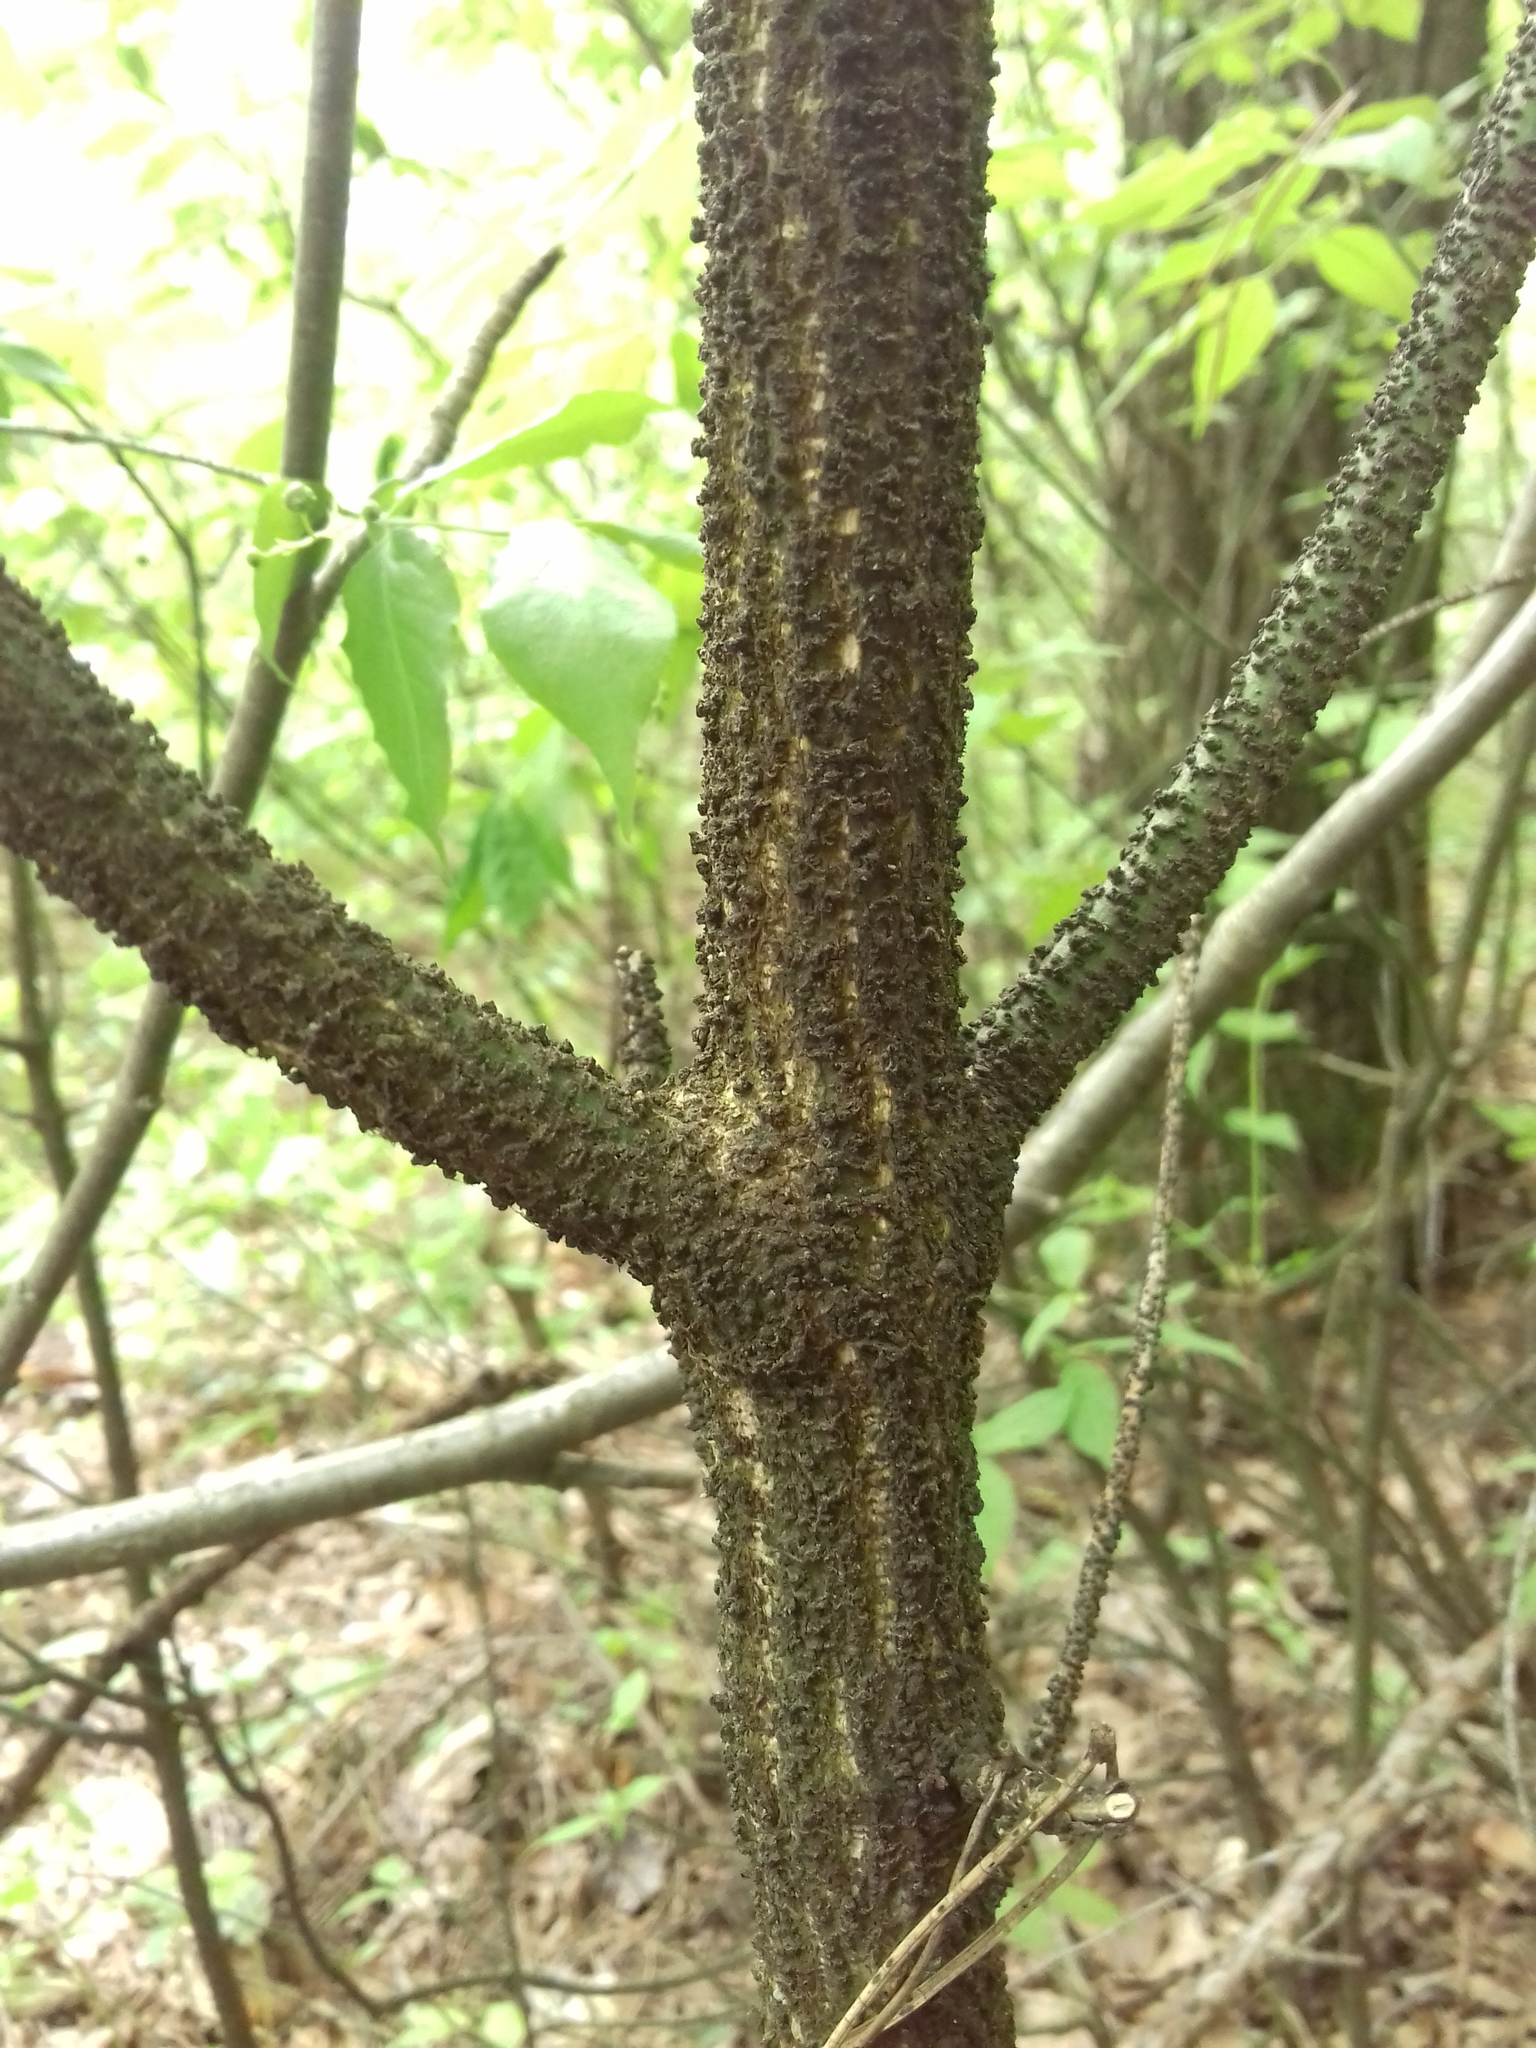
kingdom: Plantae
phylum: Tracheophyta
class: Magnoliopsida
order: Celastrales
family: Celastraceae
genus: Euonymus
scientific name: Euonymus verrucosus
